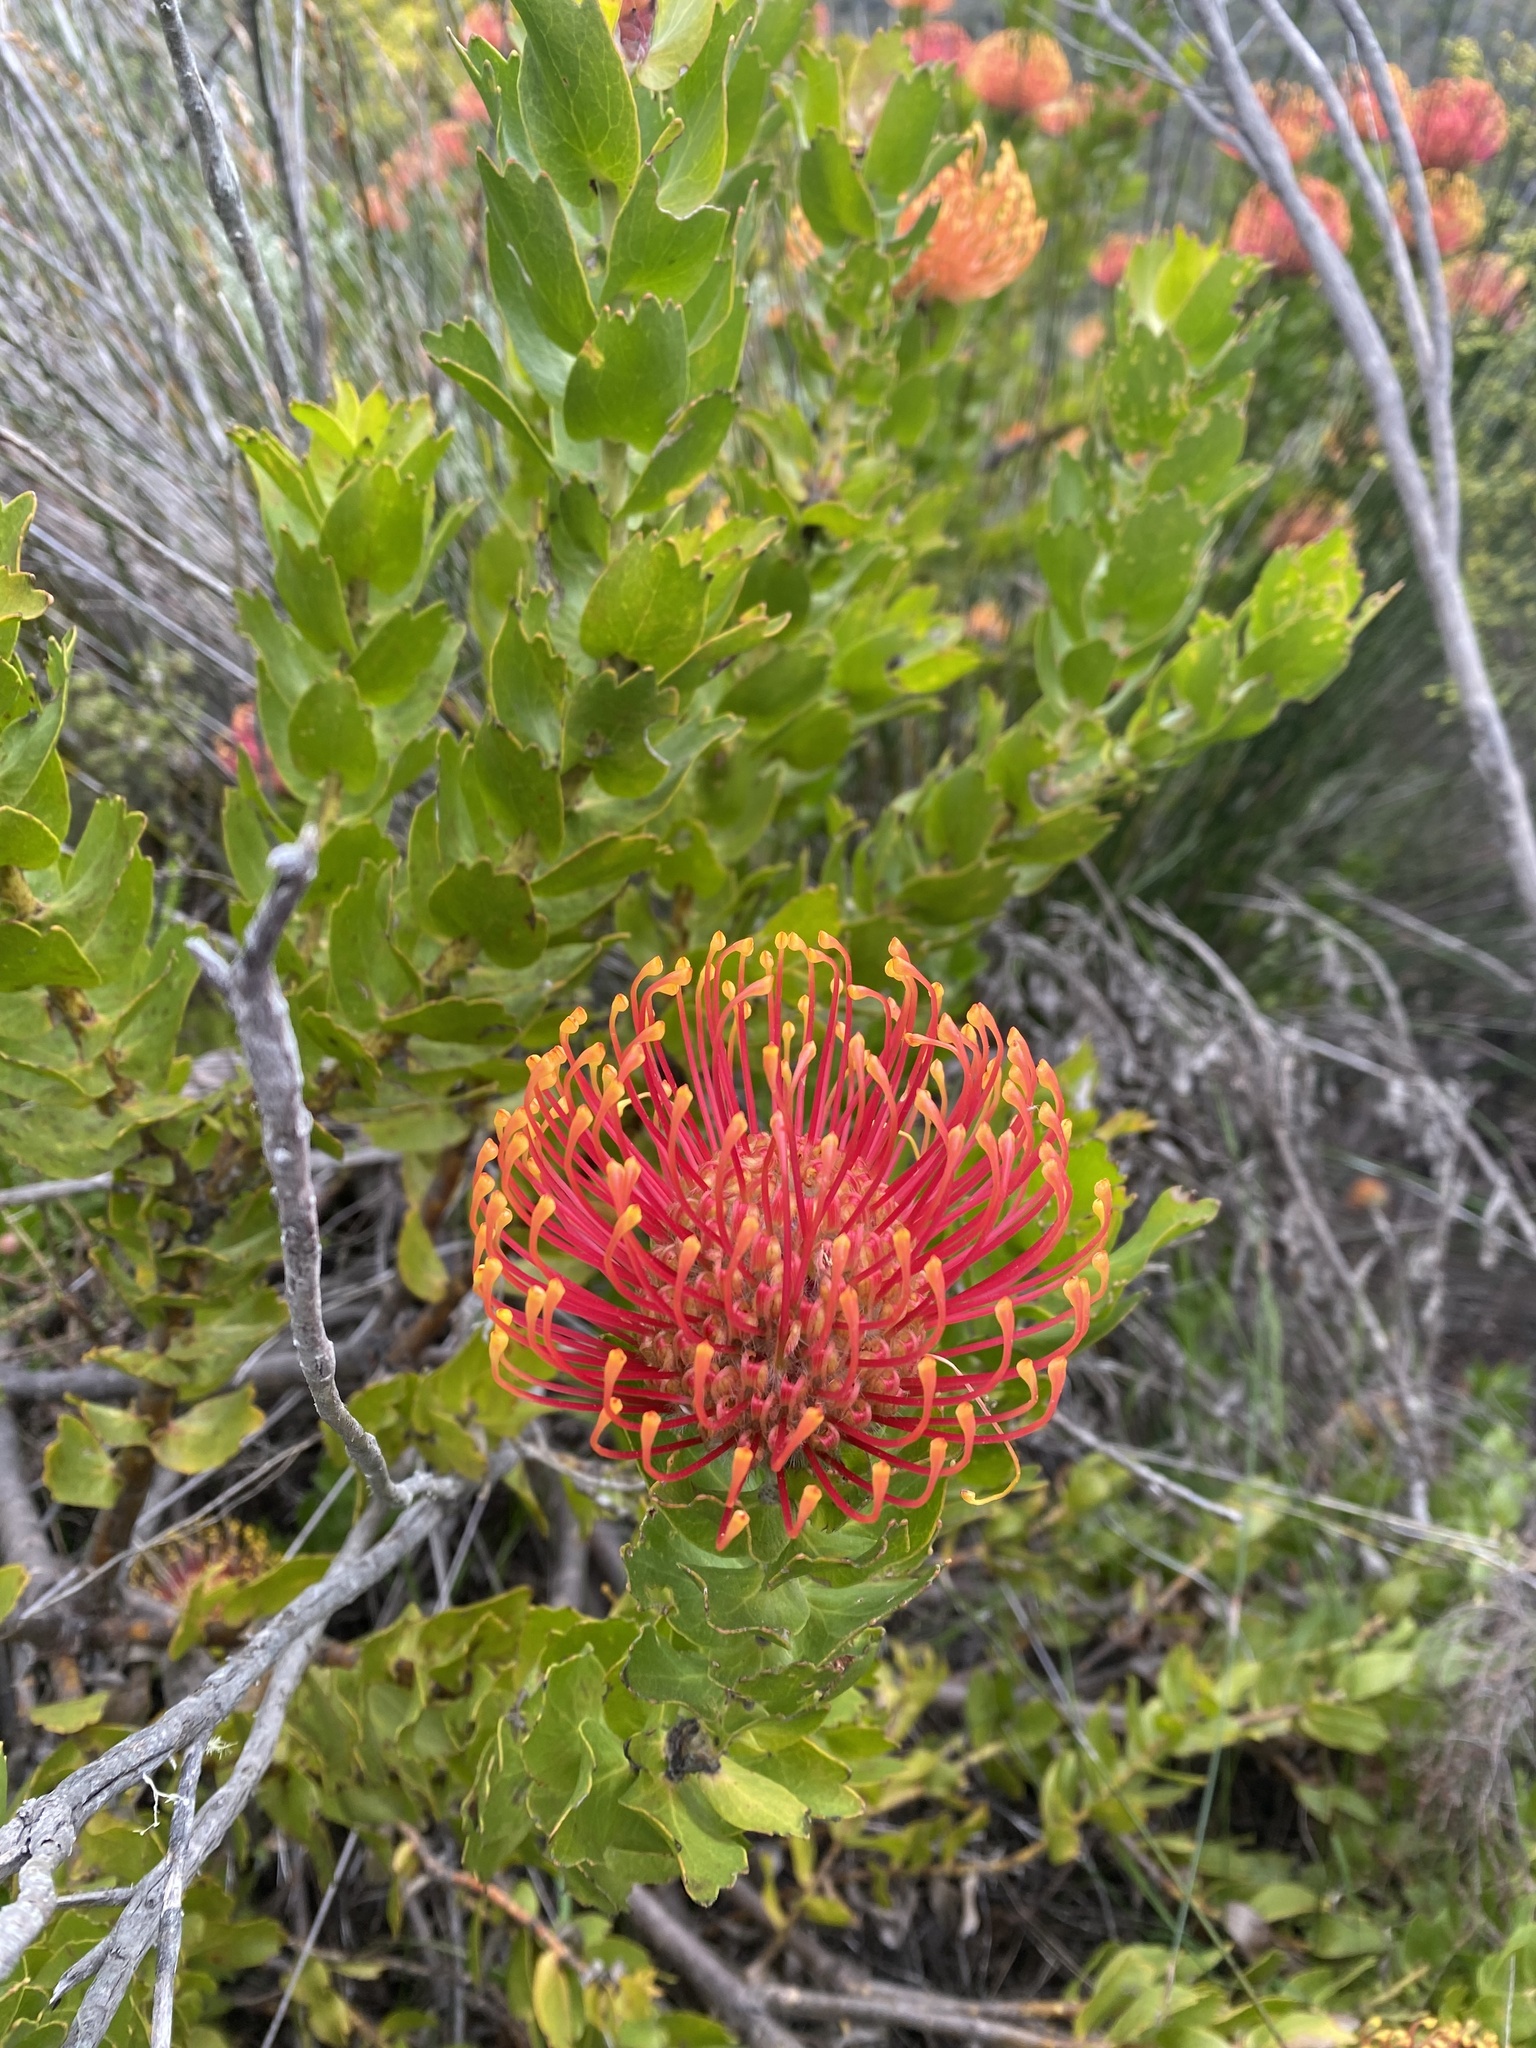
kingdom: Plantae
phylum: Tracheophyta
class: Magnoliopsida
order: Proteales
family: Proteaceae
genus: Leucospermum
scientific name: Leucospermum patersonii
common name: False tree pincushion
